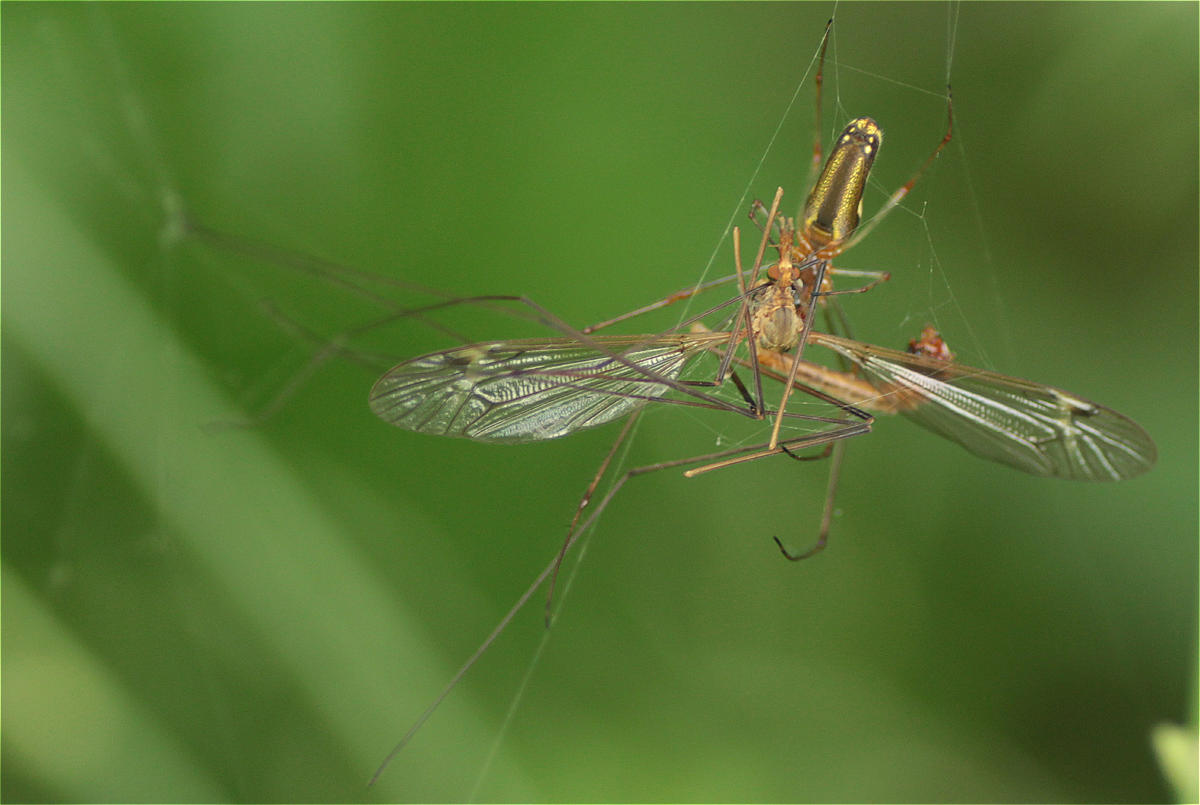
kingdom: Animalia
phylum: Arthropoda
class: Insecta
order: Diptera
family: Tipulidae
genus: Tipula
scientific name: Tipula
